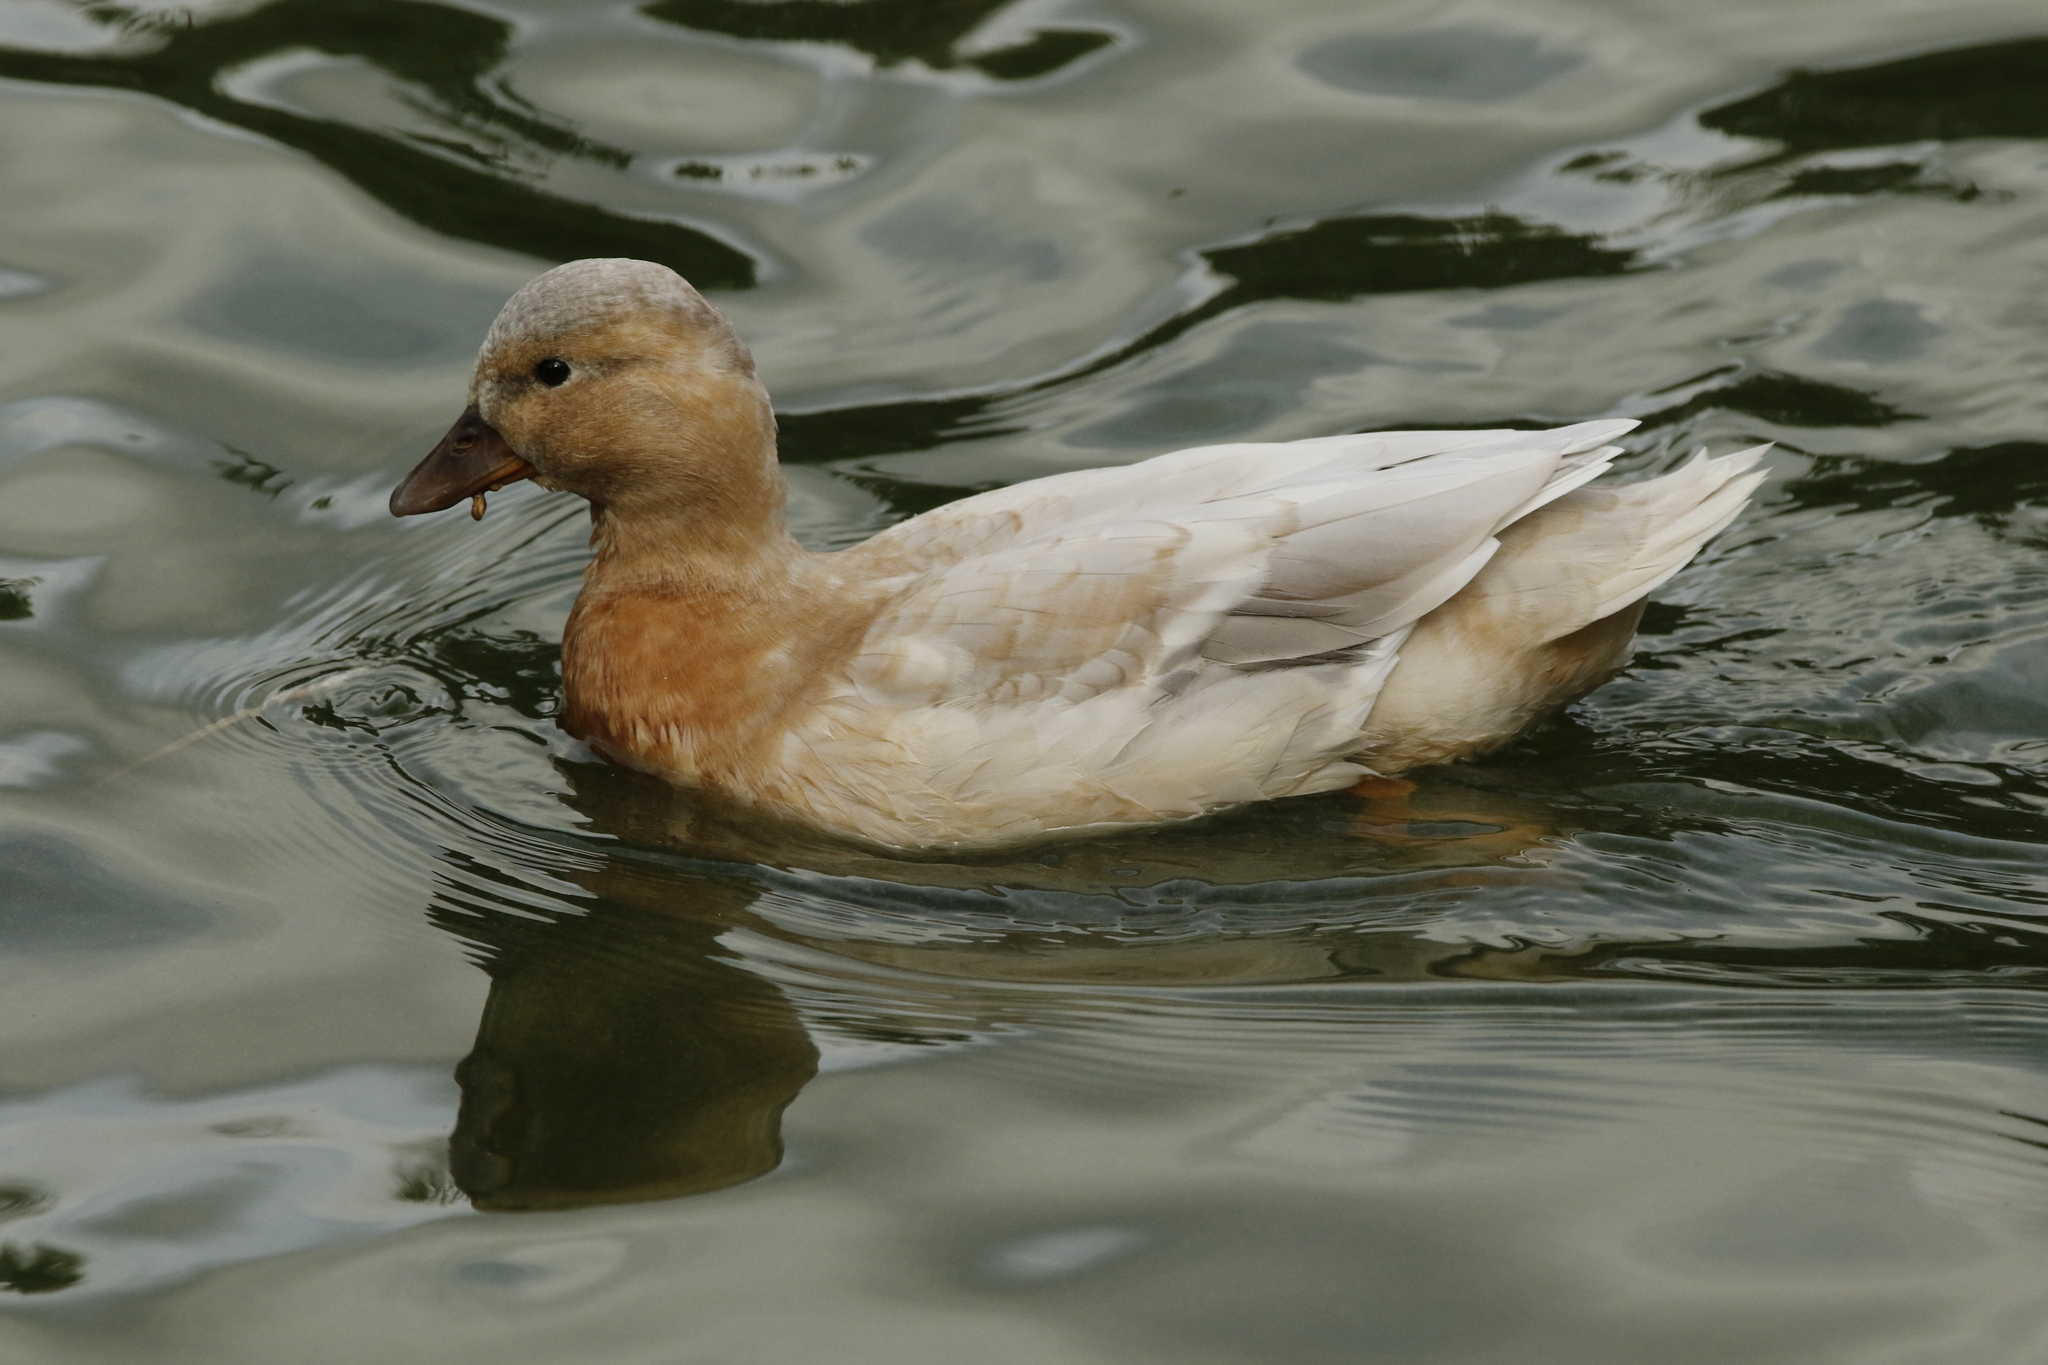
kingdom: Animalia
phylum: Chordata
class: Aves
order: Anseriformes
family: Anatidae
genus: Anas
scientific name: Anas platyrhynchos
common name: Mallard
